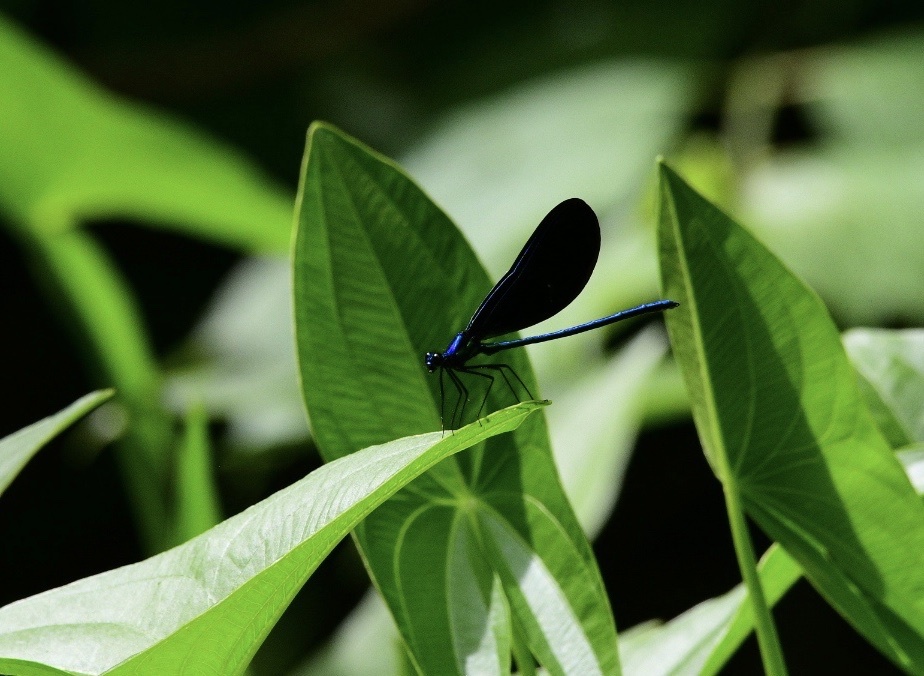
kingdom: Animalia
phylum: Arthropoda
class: Insecta
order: Odonata
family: Calopterygidae
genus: Calopteryx
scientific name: Calopteryx maculata
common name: Ebony jewelwing
